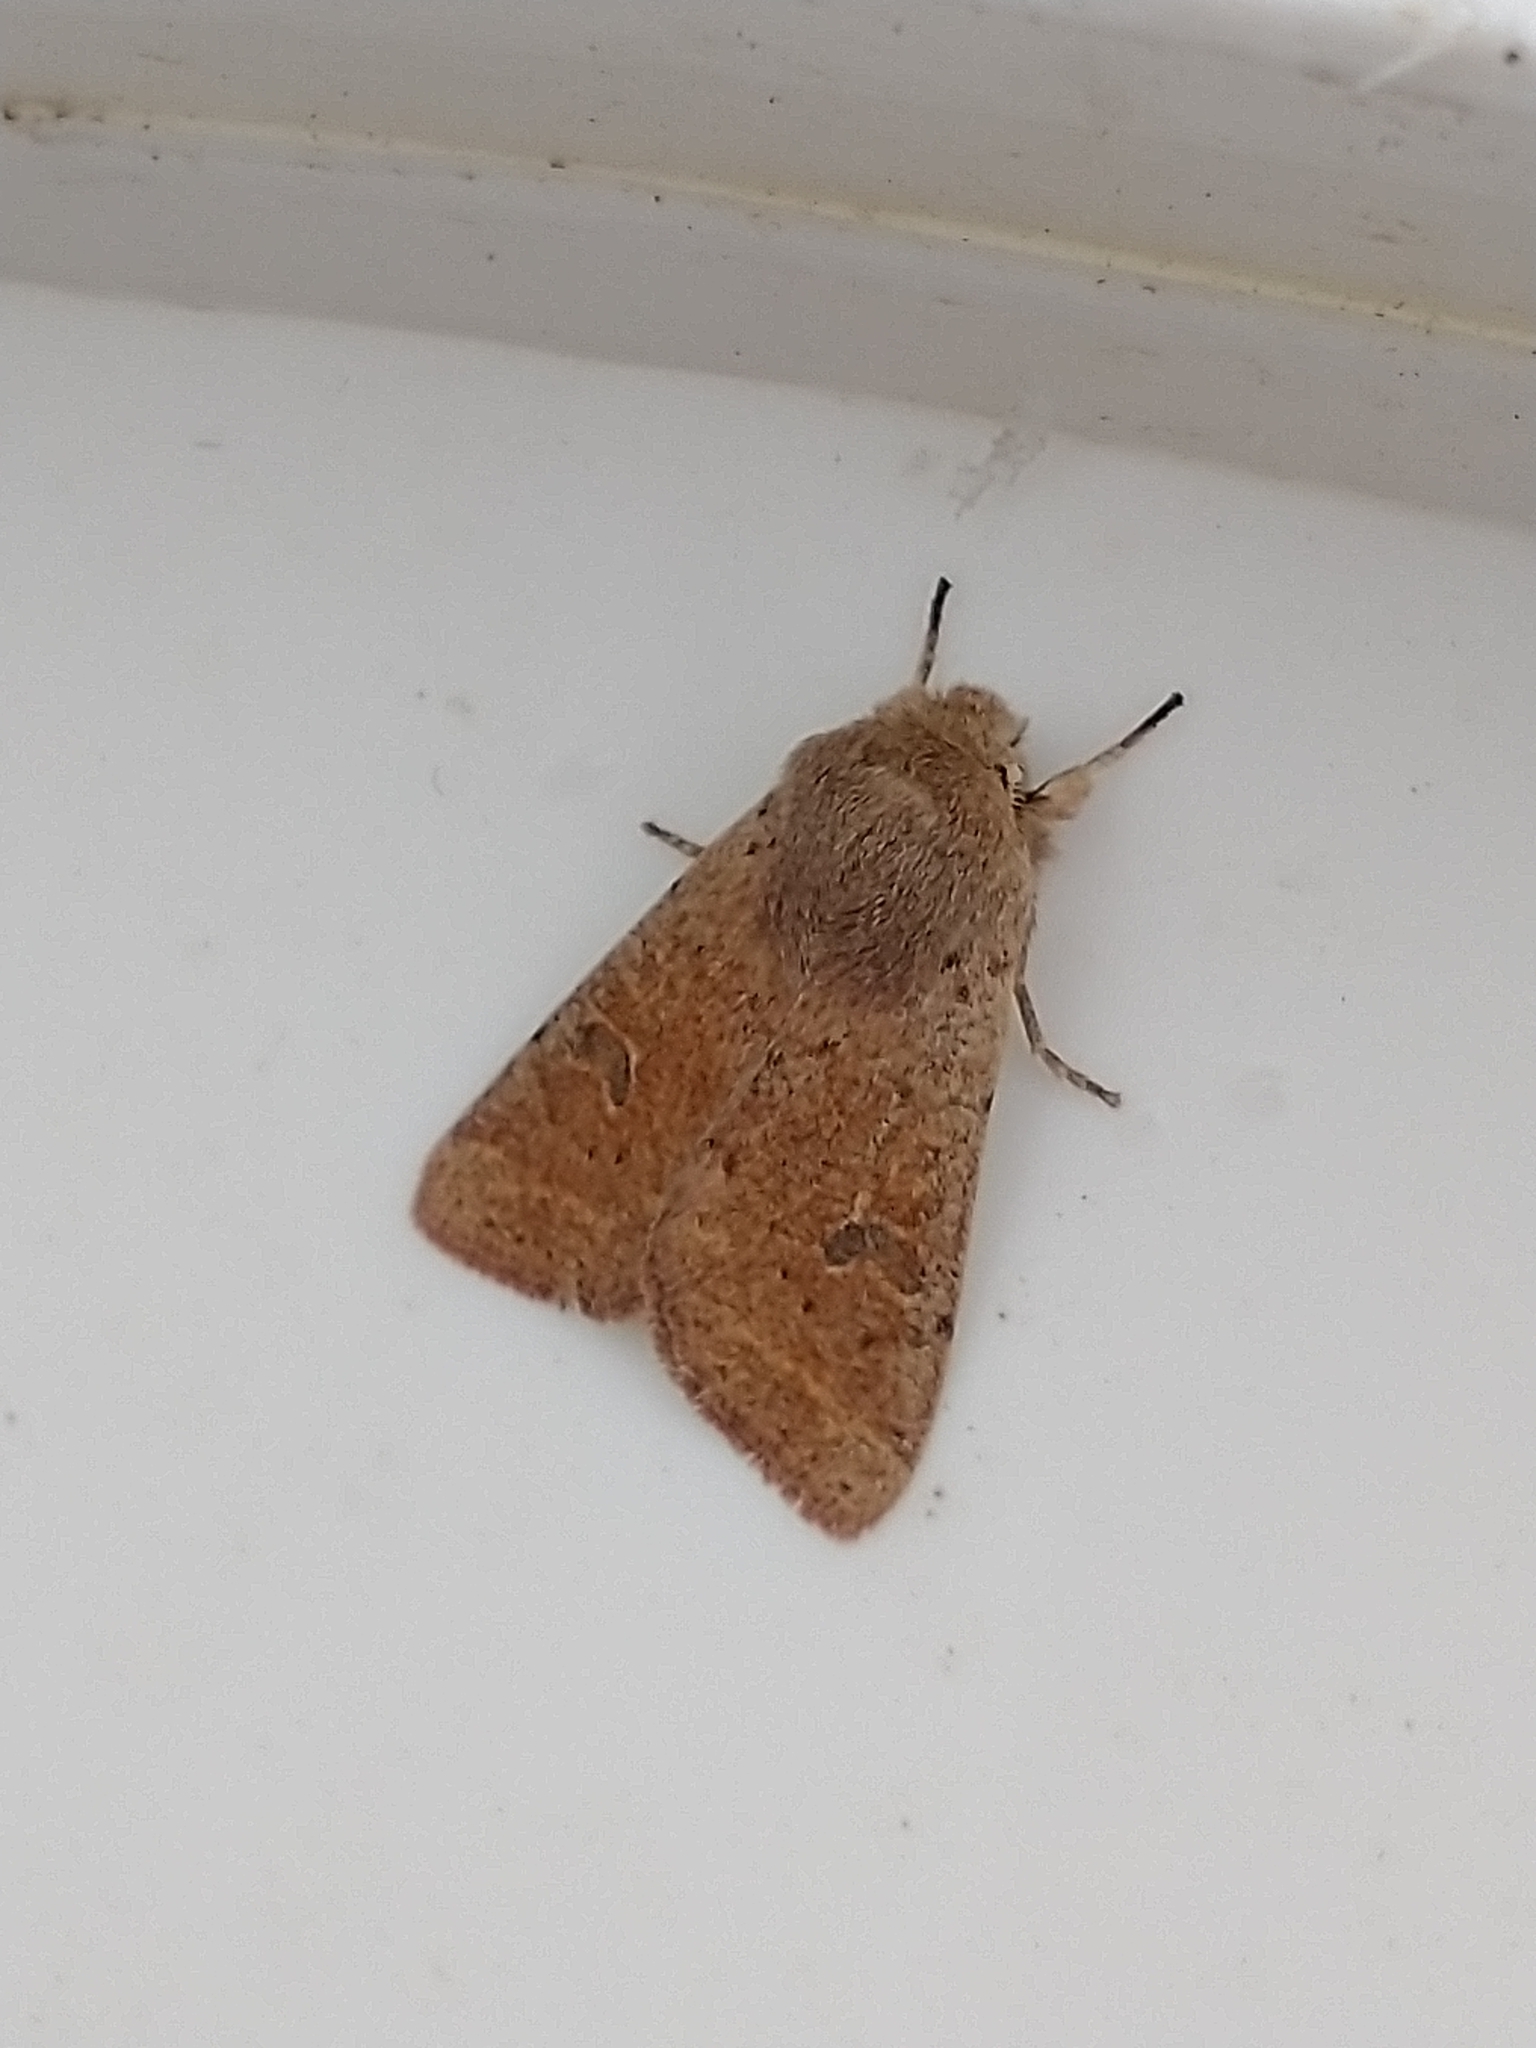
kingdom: Animalia
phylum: Arthropoda
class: Insecta
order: Lepidoptera
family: Noctuidae
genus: Orthosia
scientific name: Orthosia cruda
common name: Small quaker
